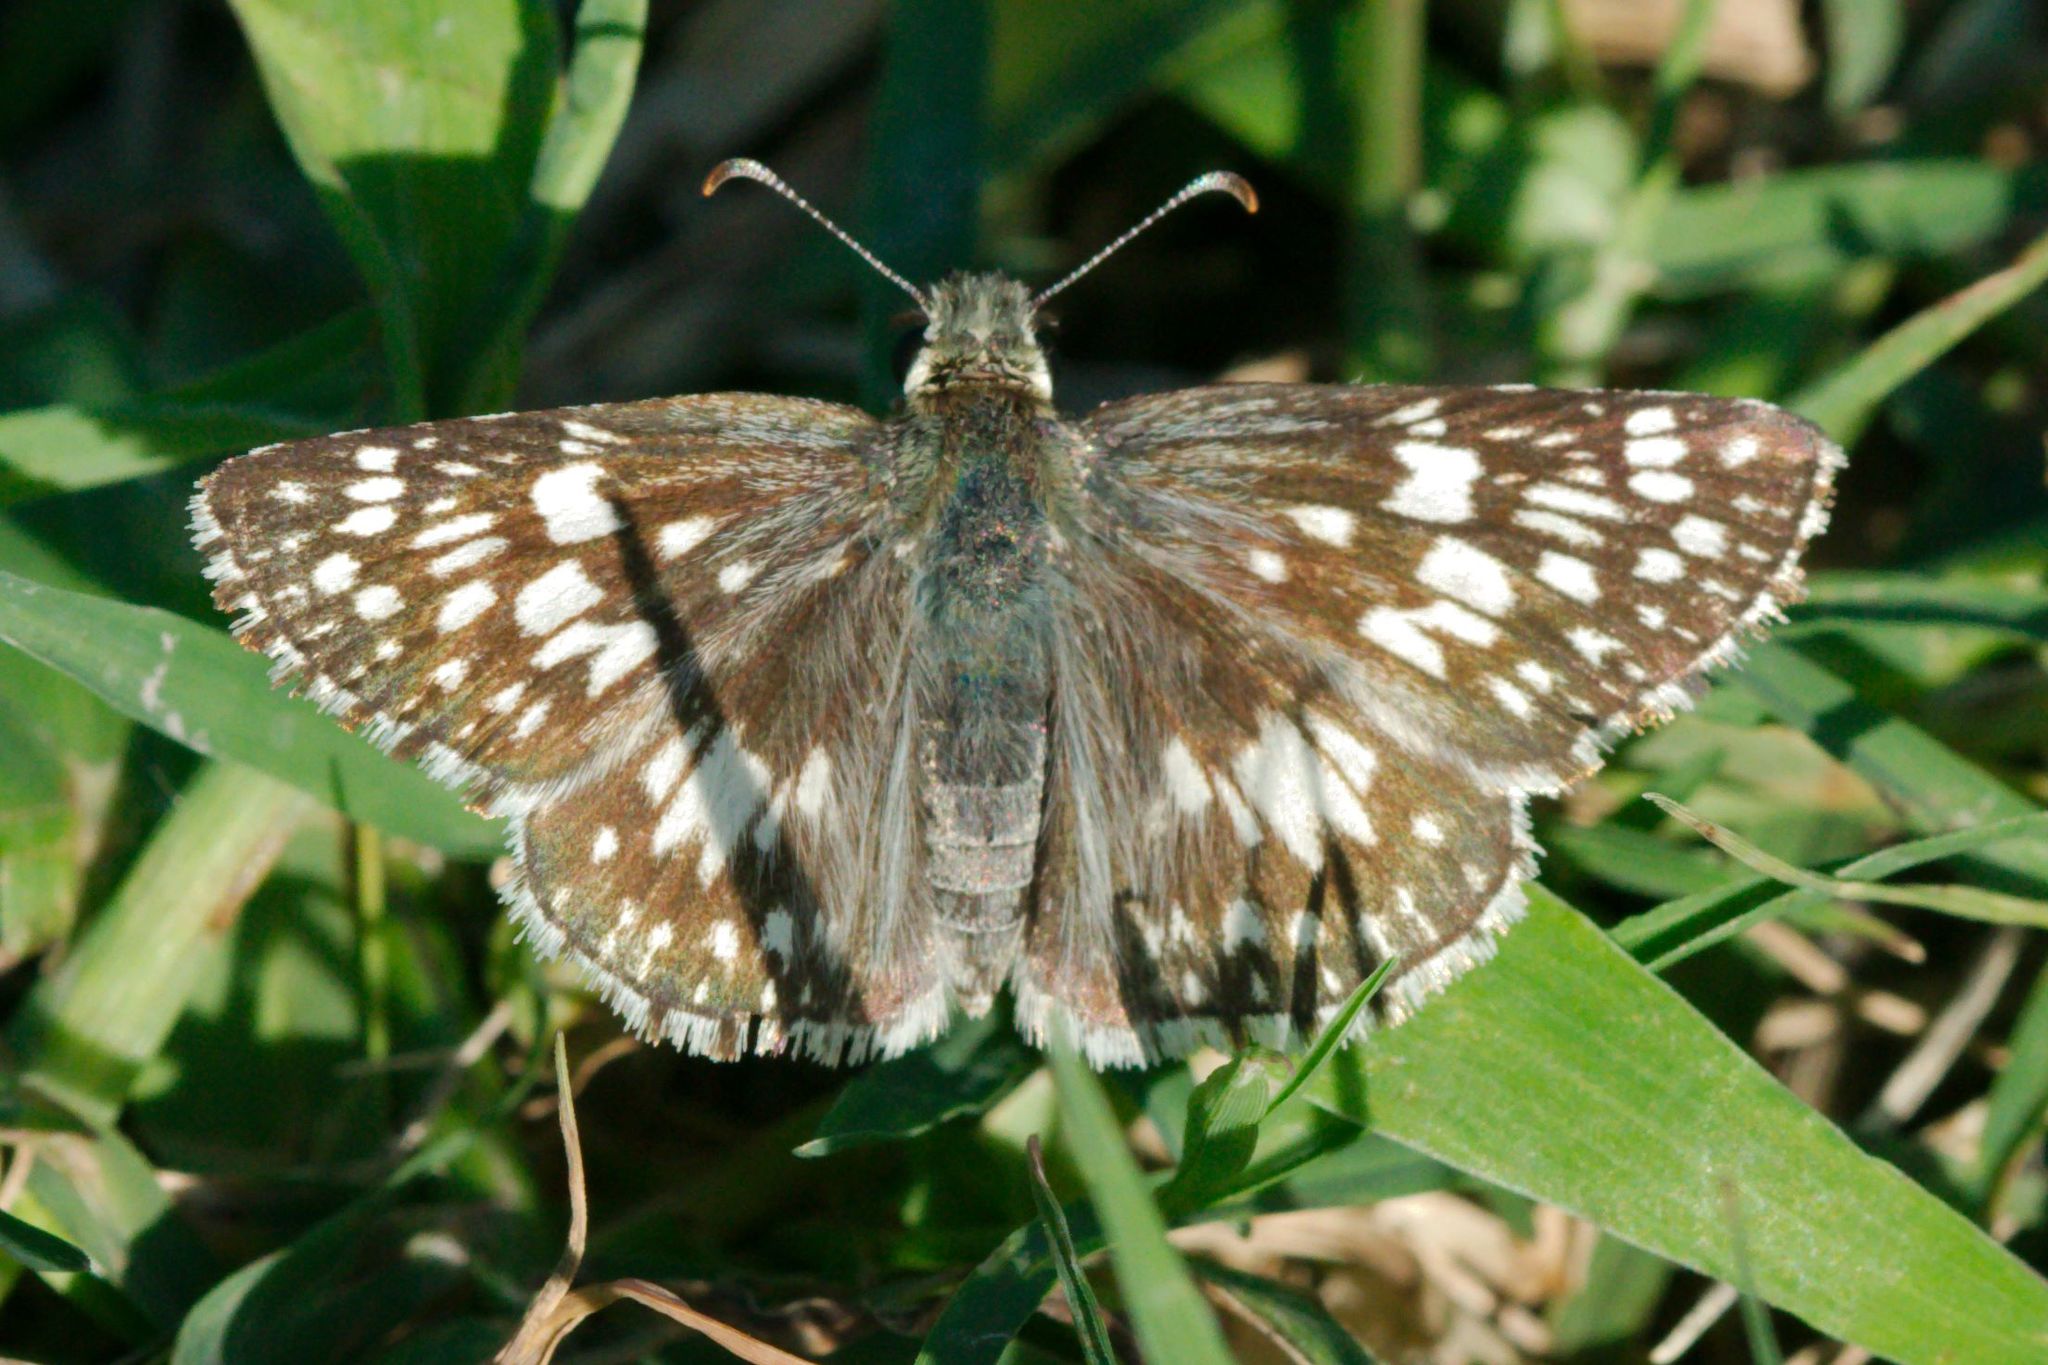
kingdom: Animalia
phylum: Arthropoda
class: Insecta
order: Lepidoptera
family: Hesperiidae
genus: Burnsius
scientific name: Burnsius albezens
